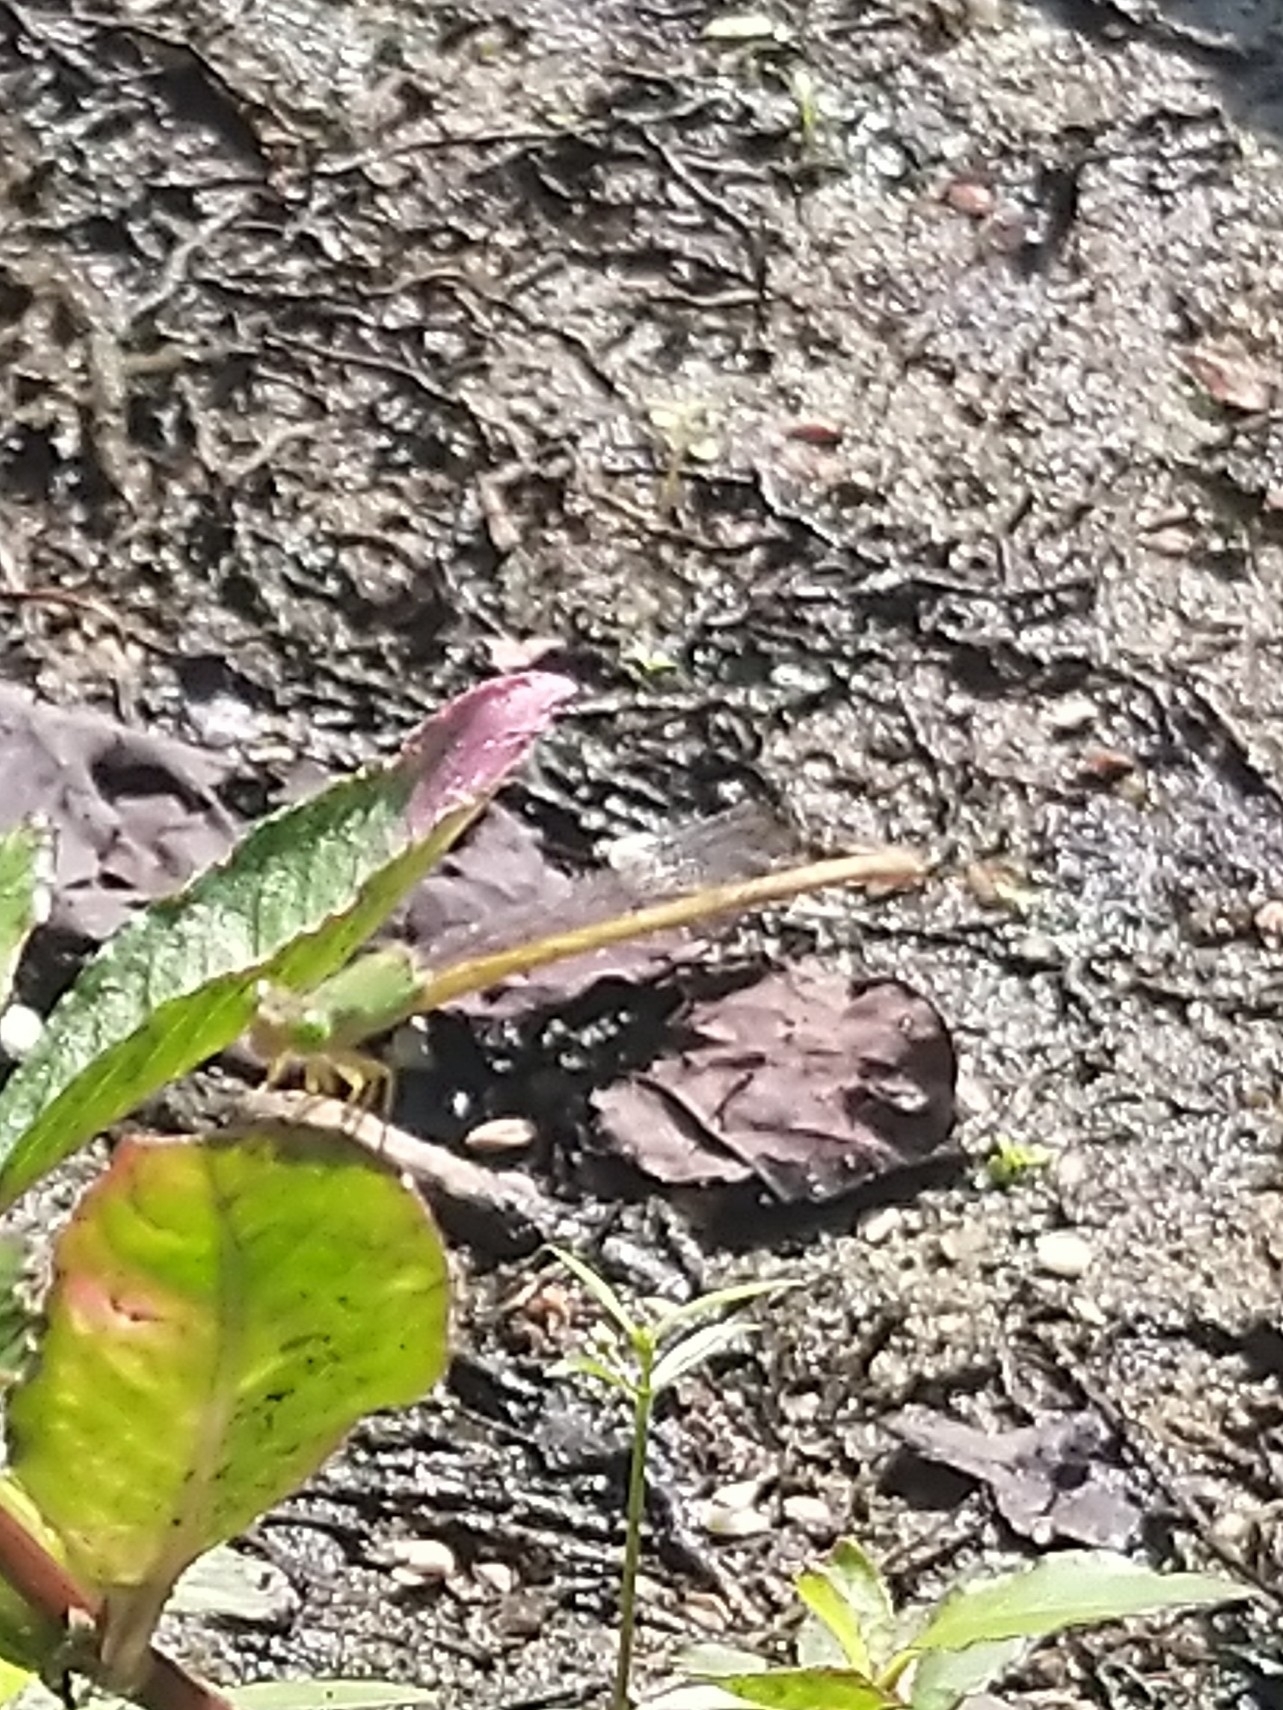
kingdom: Animalia
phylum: Arthropoda
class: Insecta
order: Odonata
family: Coenagrionidae
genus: Ceriagrion
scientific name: Ceriagrion coromandelianum
